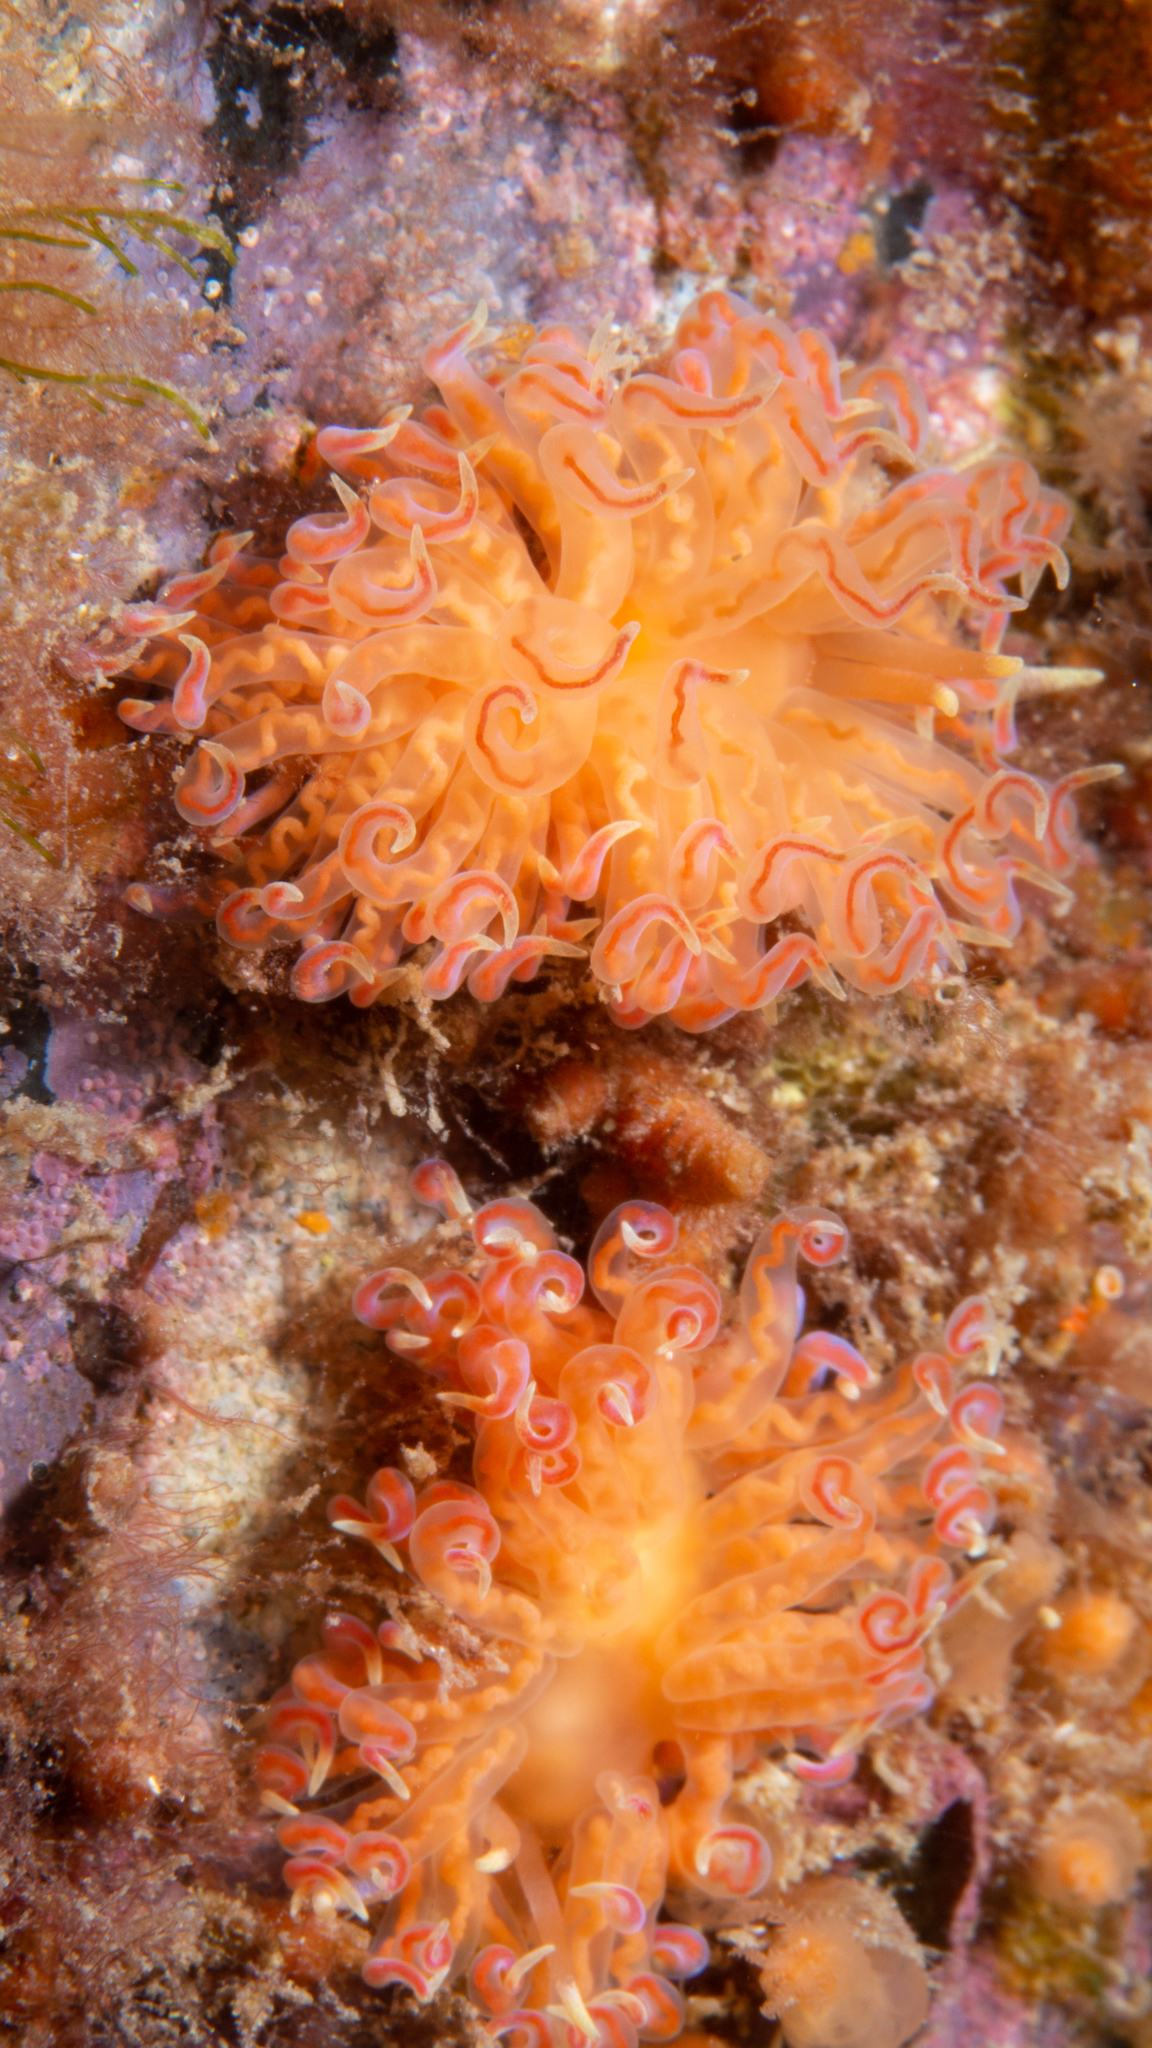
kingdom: Animalia
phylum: Mollusca
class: Gastropoda
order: Nudibranchia
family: Myrrhinidae
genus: Phyllodesmium
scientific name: Phyllodesmium poindimiei
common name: Sea slug
